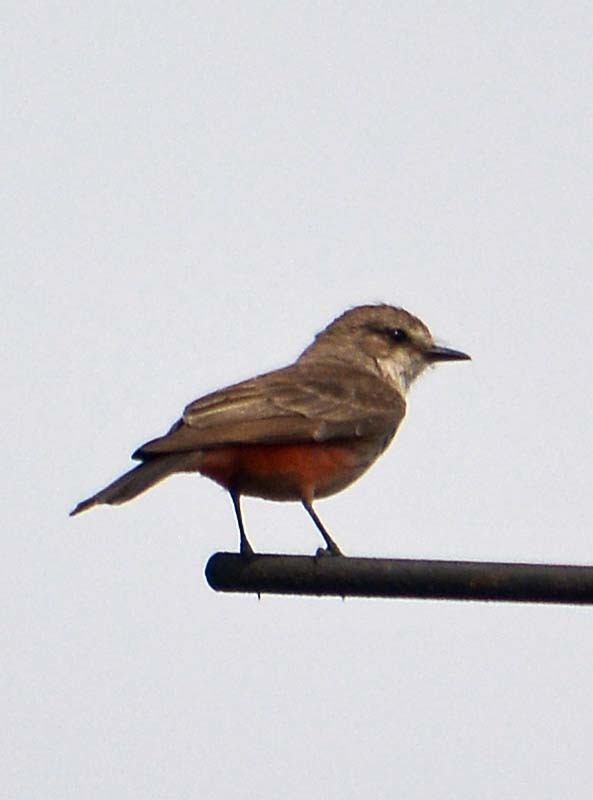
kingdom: Animalia
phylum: Chordata
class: Aves
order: Passeriformes
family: Tyrannidae
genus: Pyrocephalus
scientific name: Pyrocephalus rubinus
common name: Vermilion flycatcher
